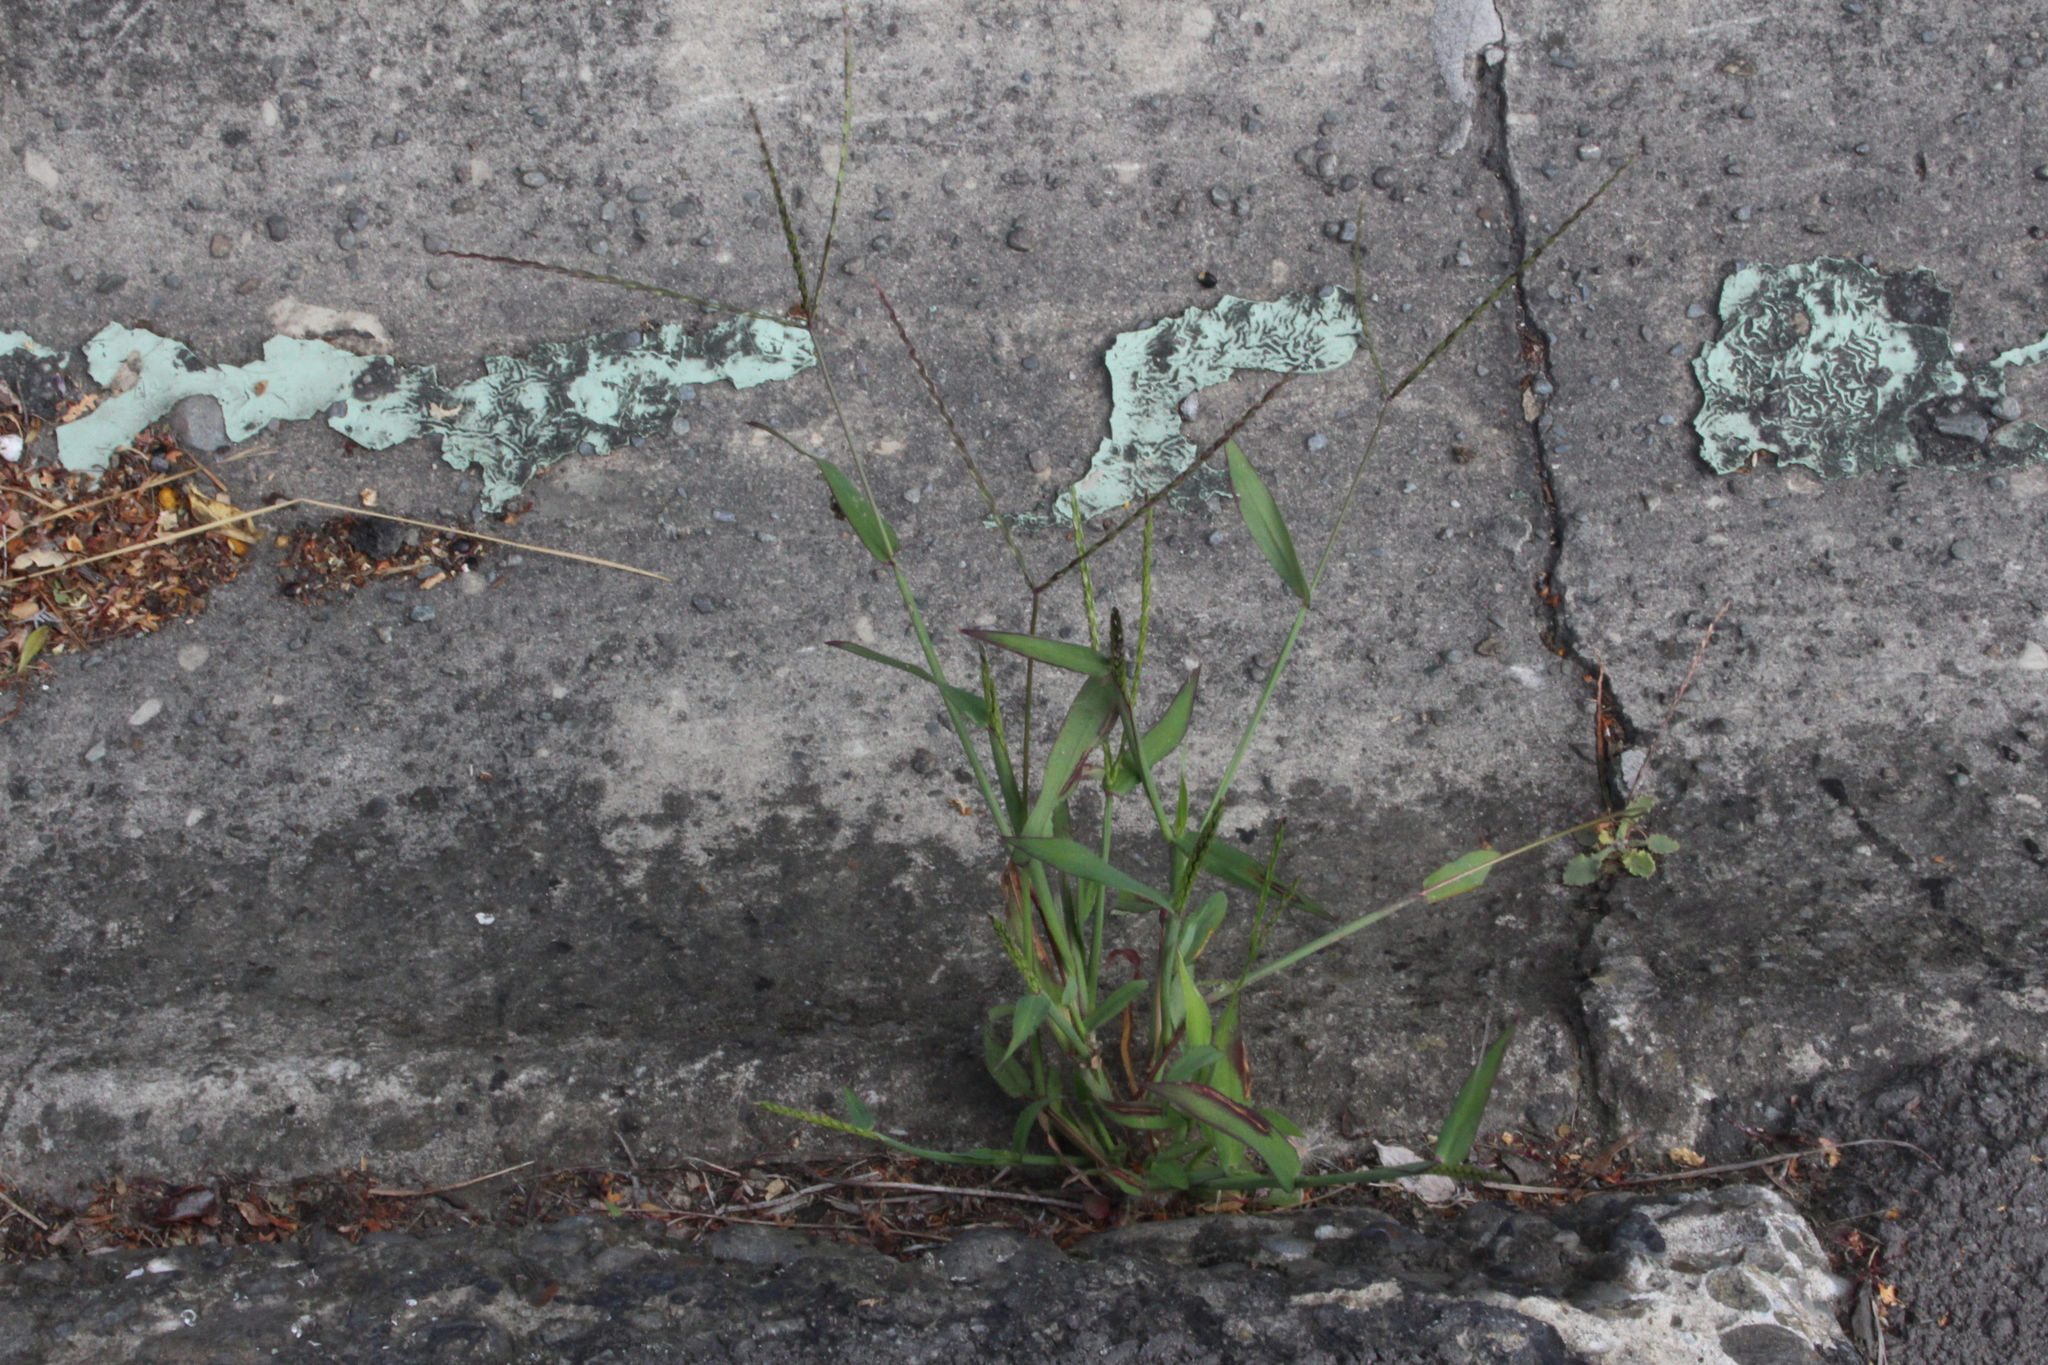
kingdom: Plantae
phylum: Tracheophyta
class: Liliopsida
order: Poales
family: Poaceae
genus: Digitaria
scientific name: Digitaria sanguinalis
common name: Hairy crabgrass
